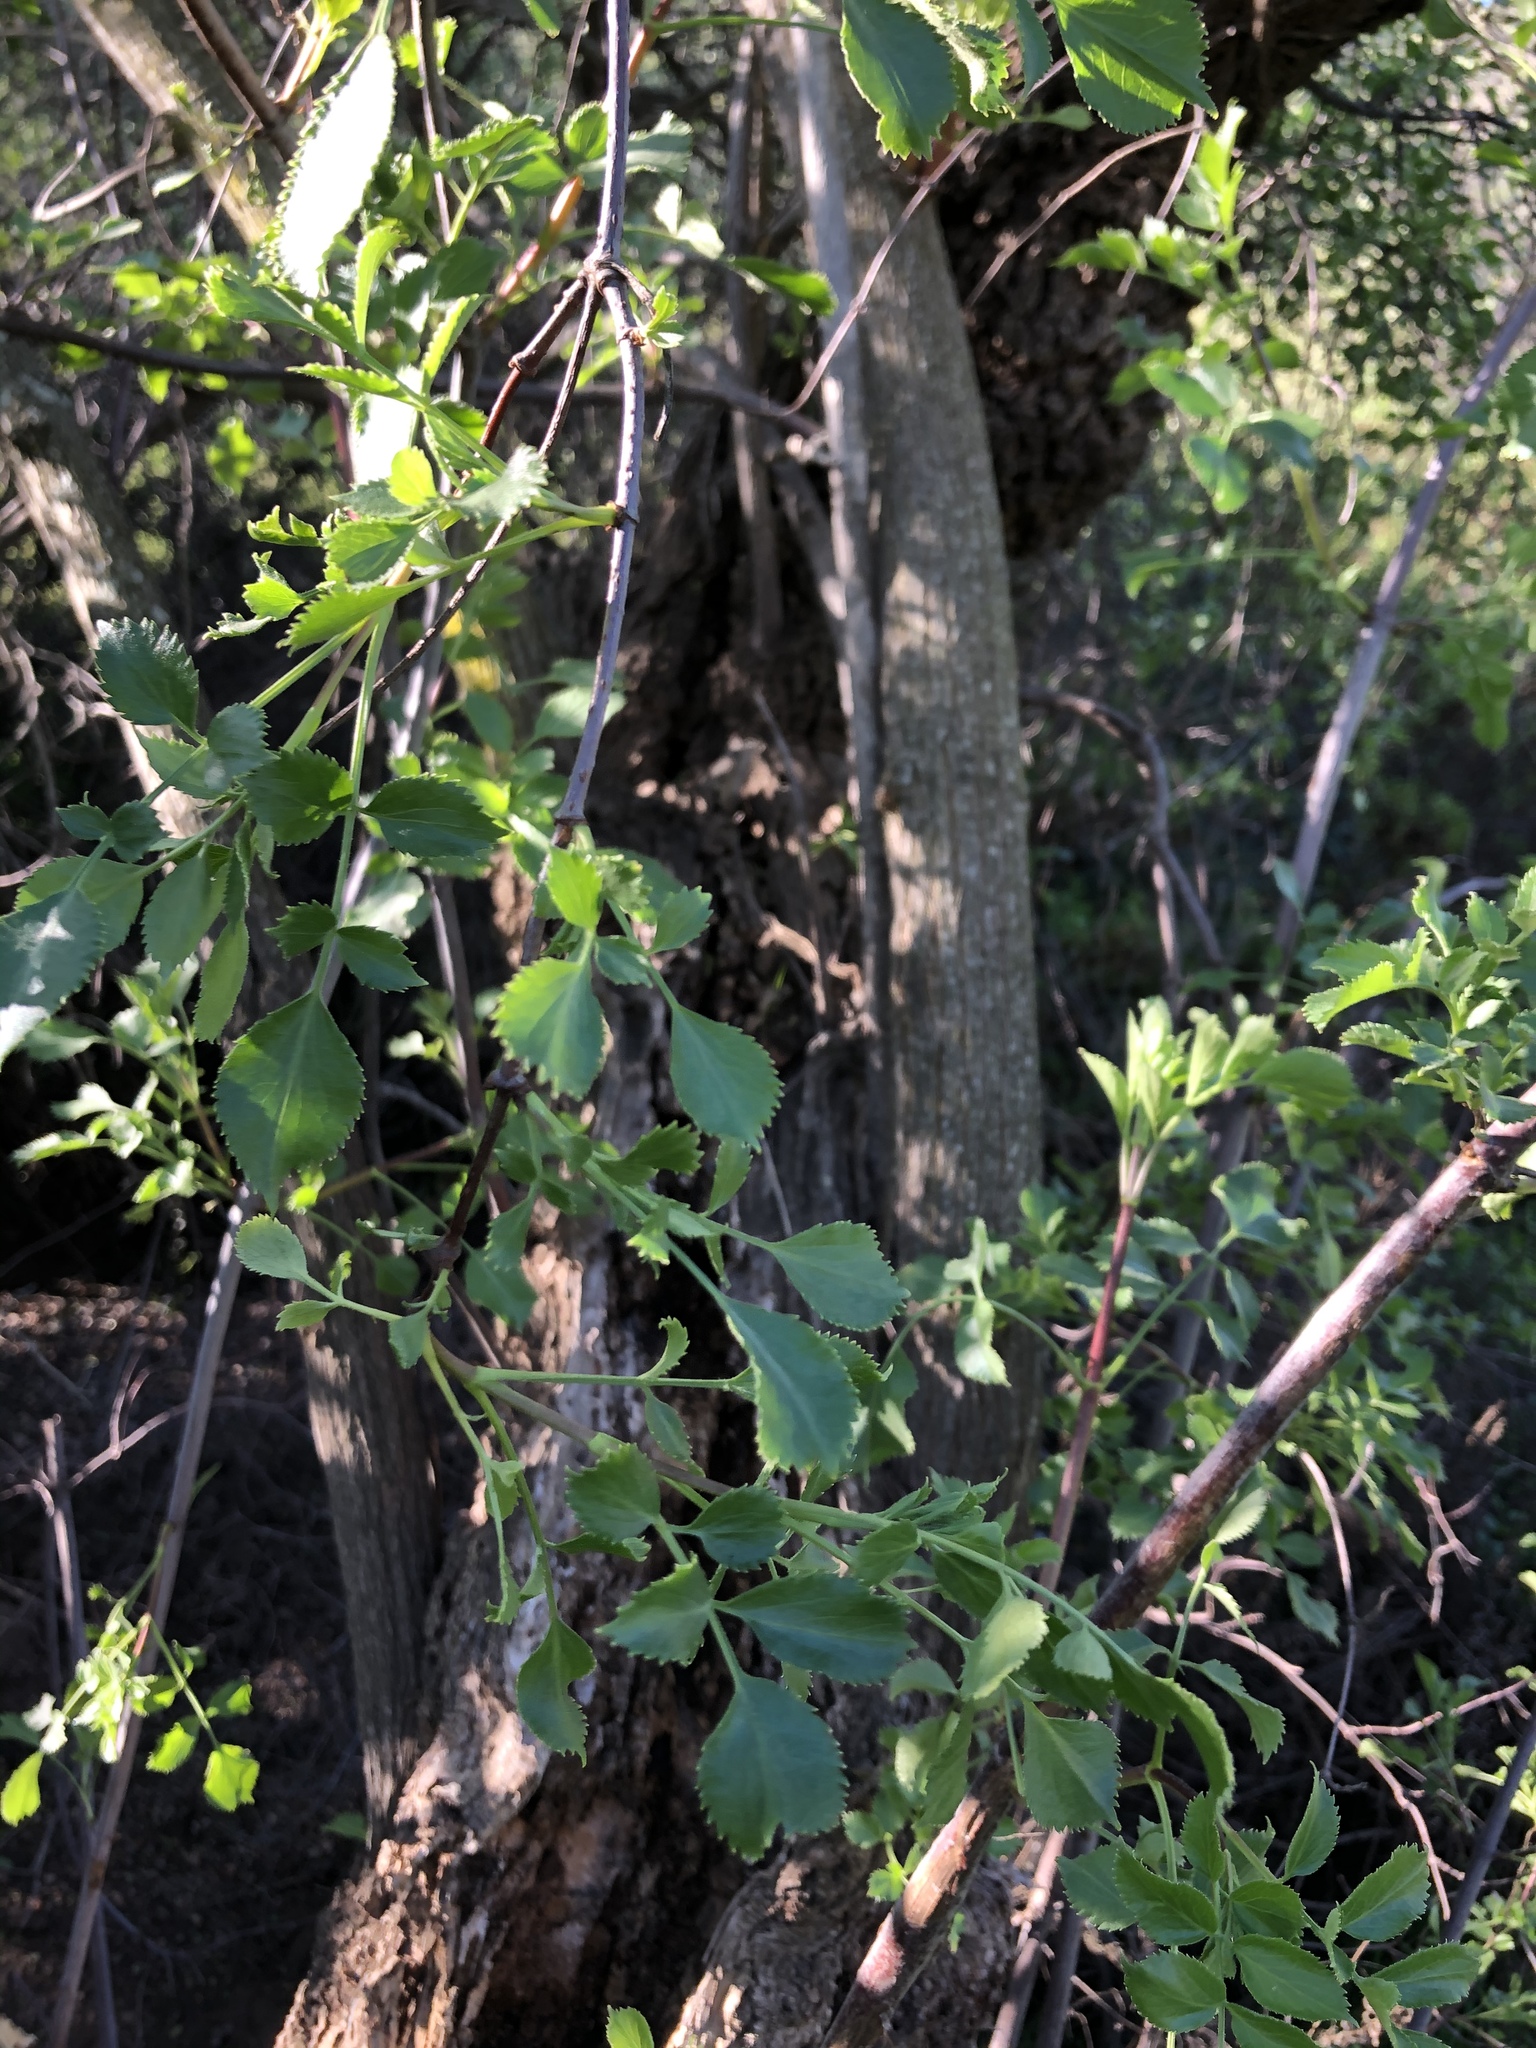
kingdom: Plantae
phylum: Tracheophyta
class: Magnoliopsida
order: Dipsacales
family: Viburnaceae
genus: Sambucus
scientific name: Sambucus cerulea
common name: Blue elder
